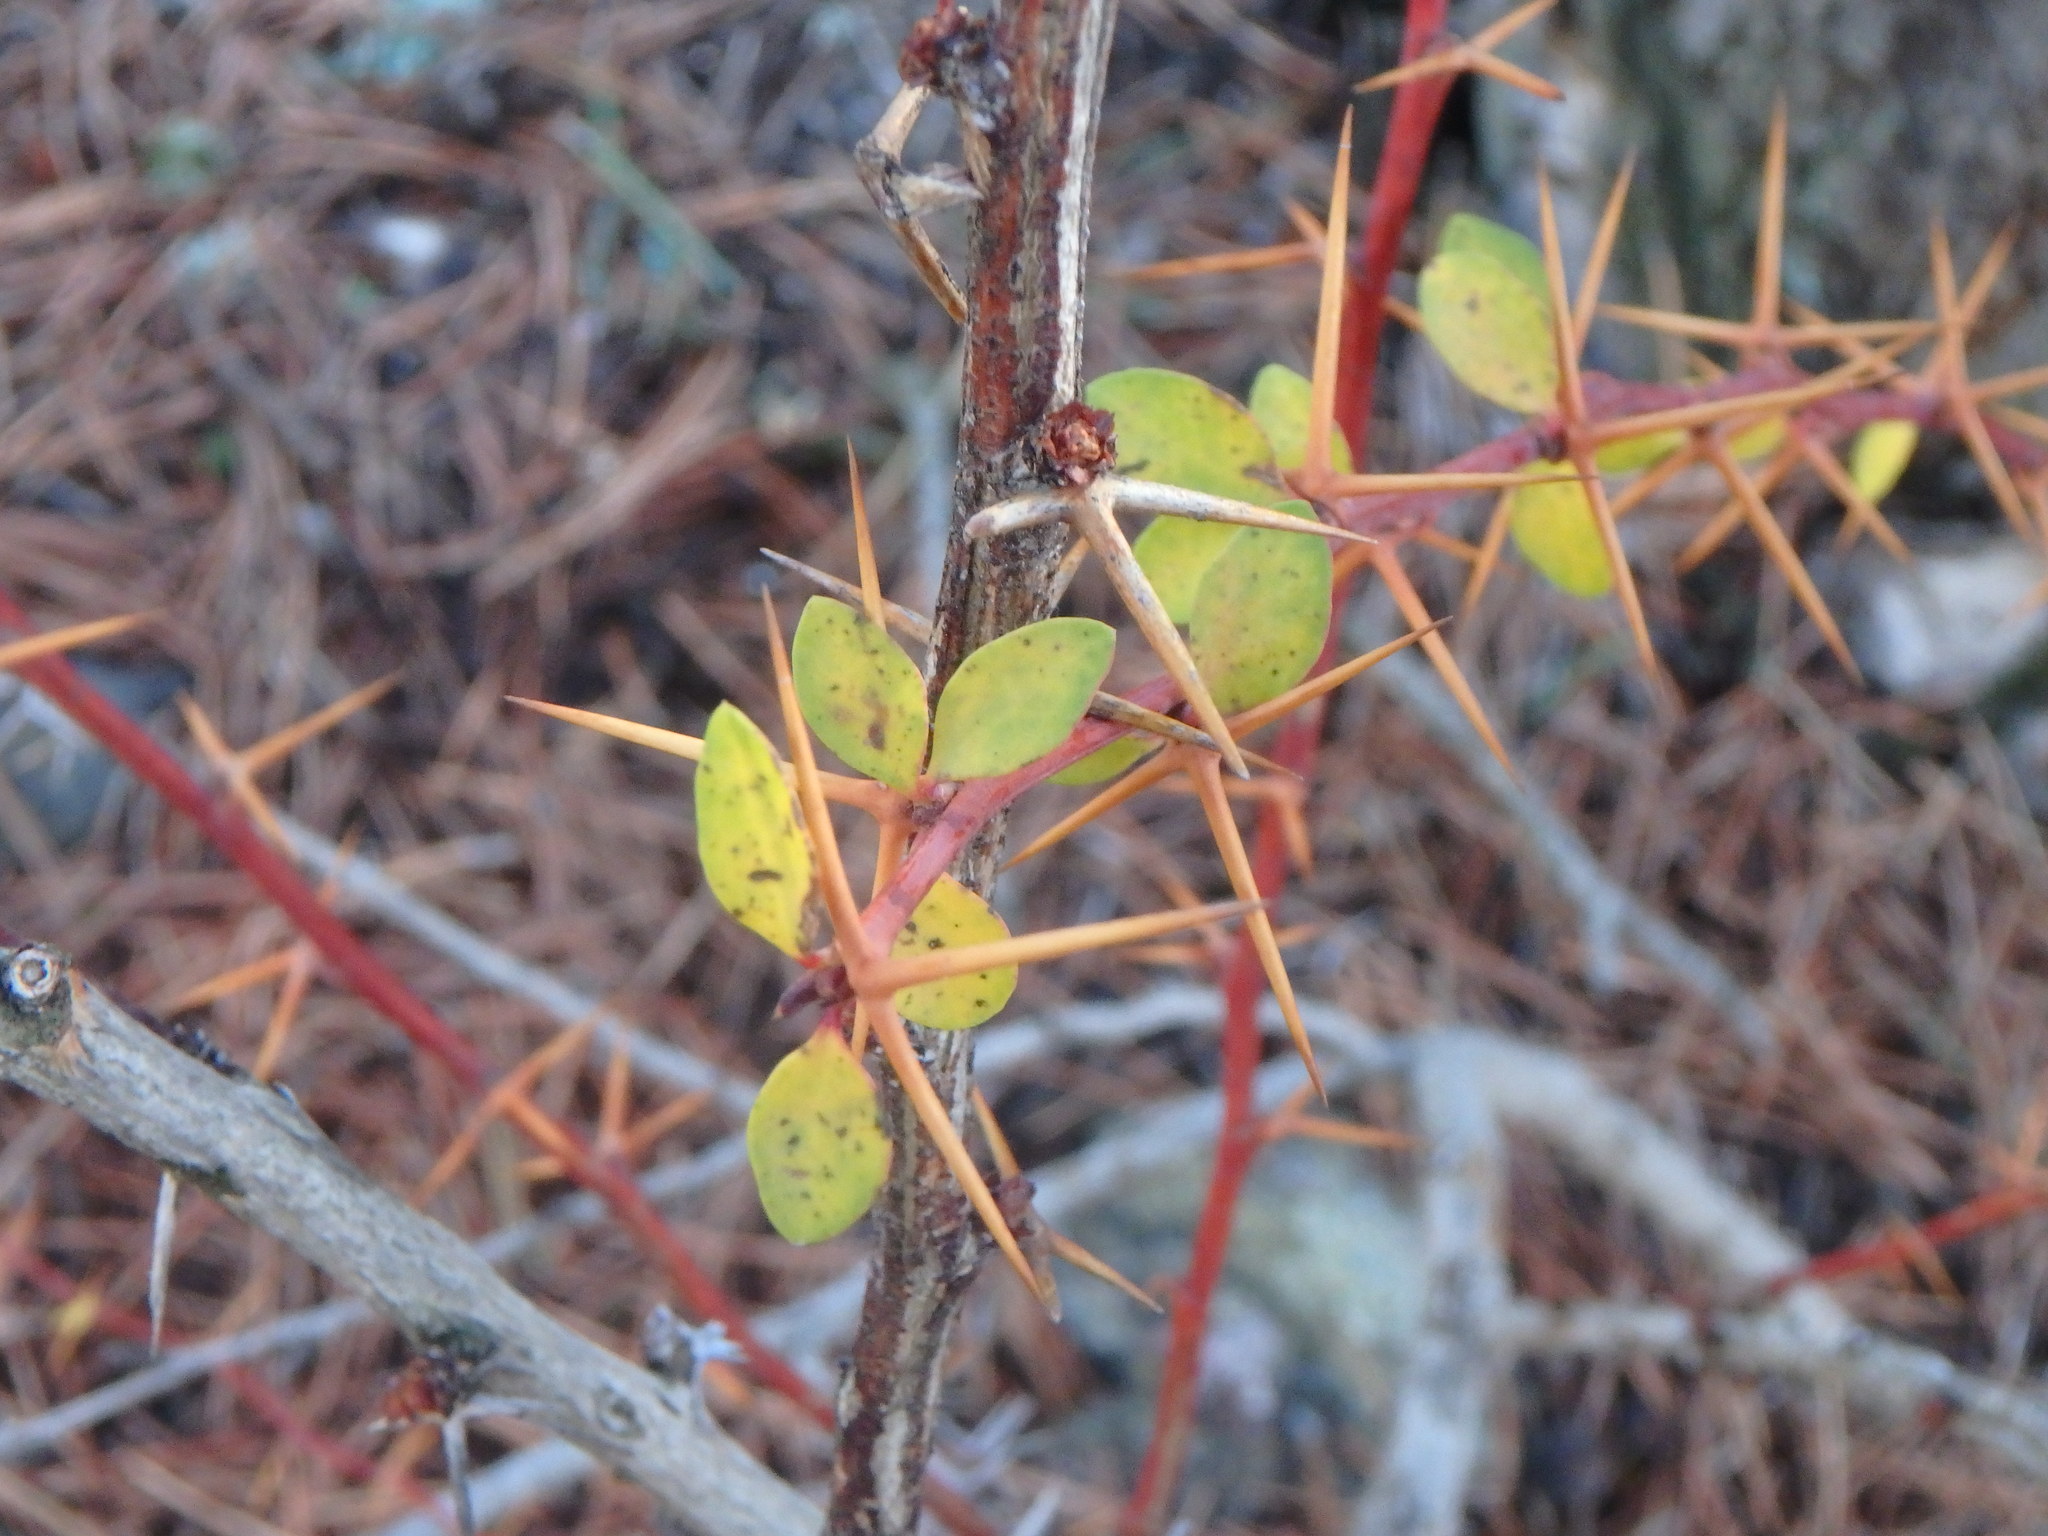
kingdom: Plantae
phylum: Tracheophyta
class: Magnoliopsida
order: Ranunculales
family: Berberidaceae
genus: Berberis
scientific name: Berberis cretica
